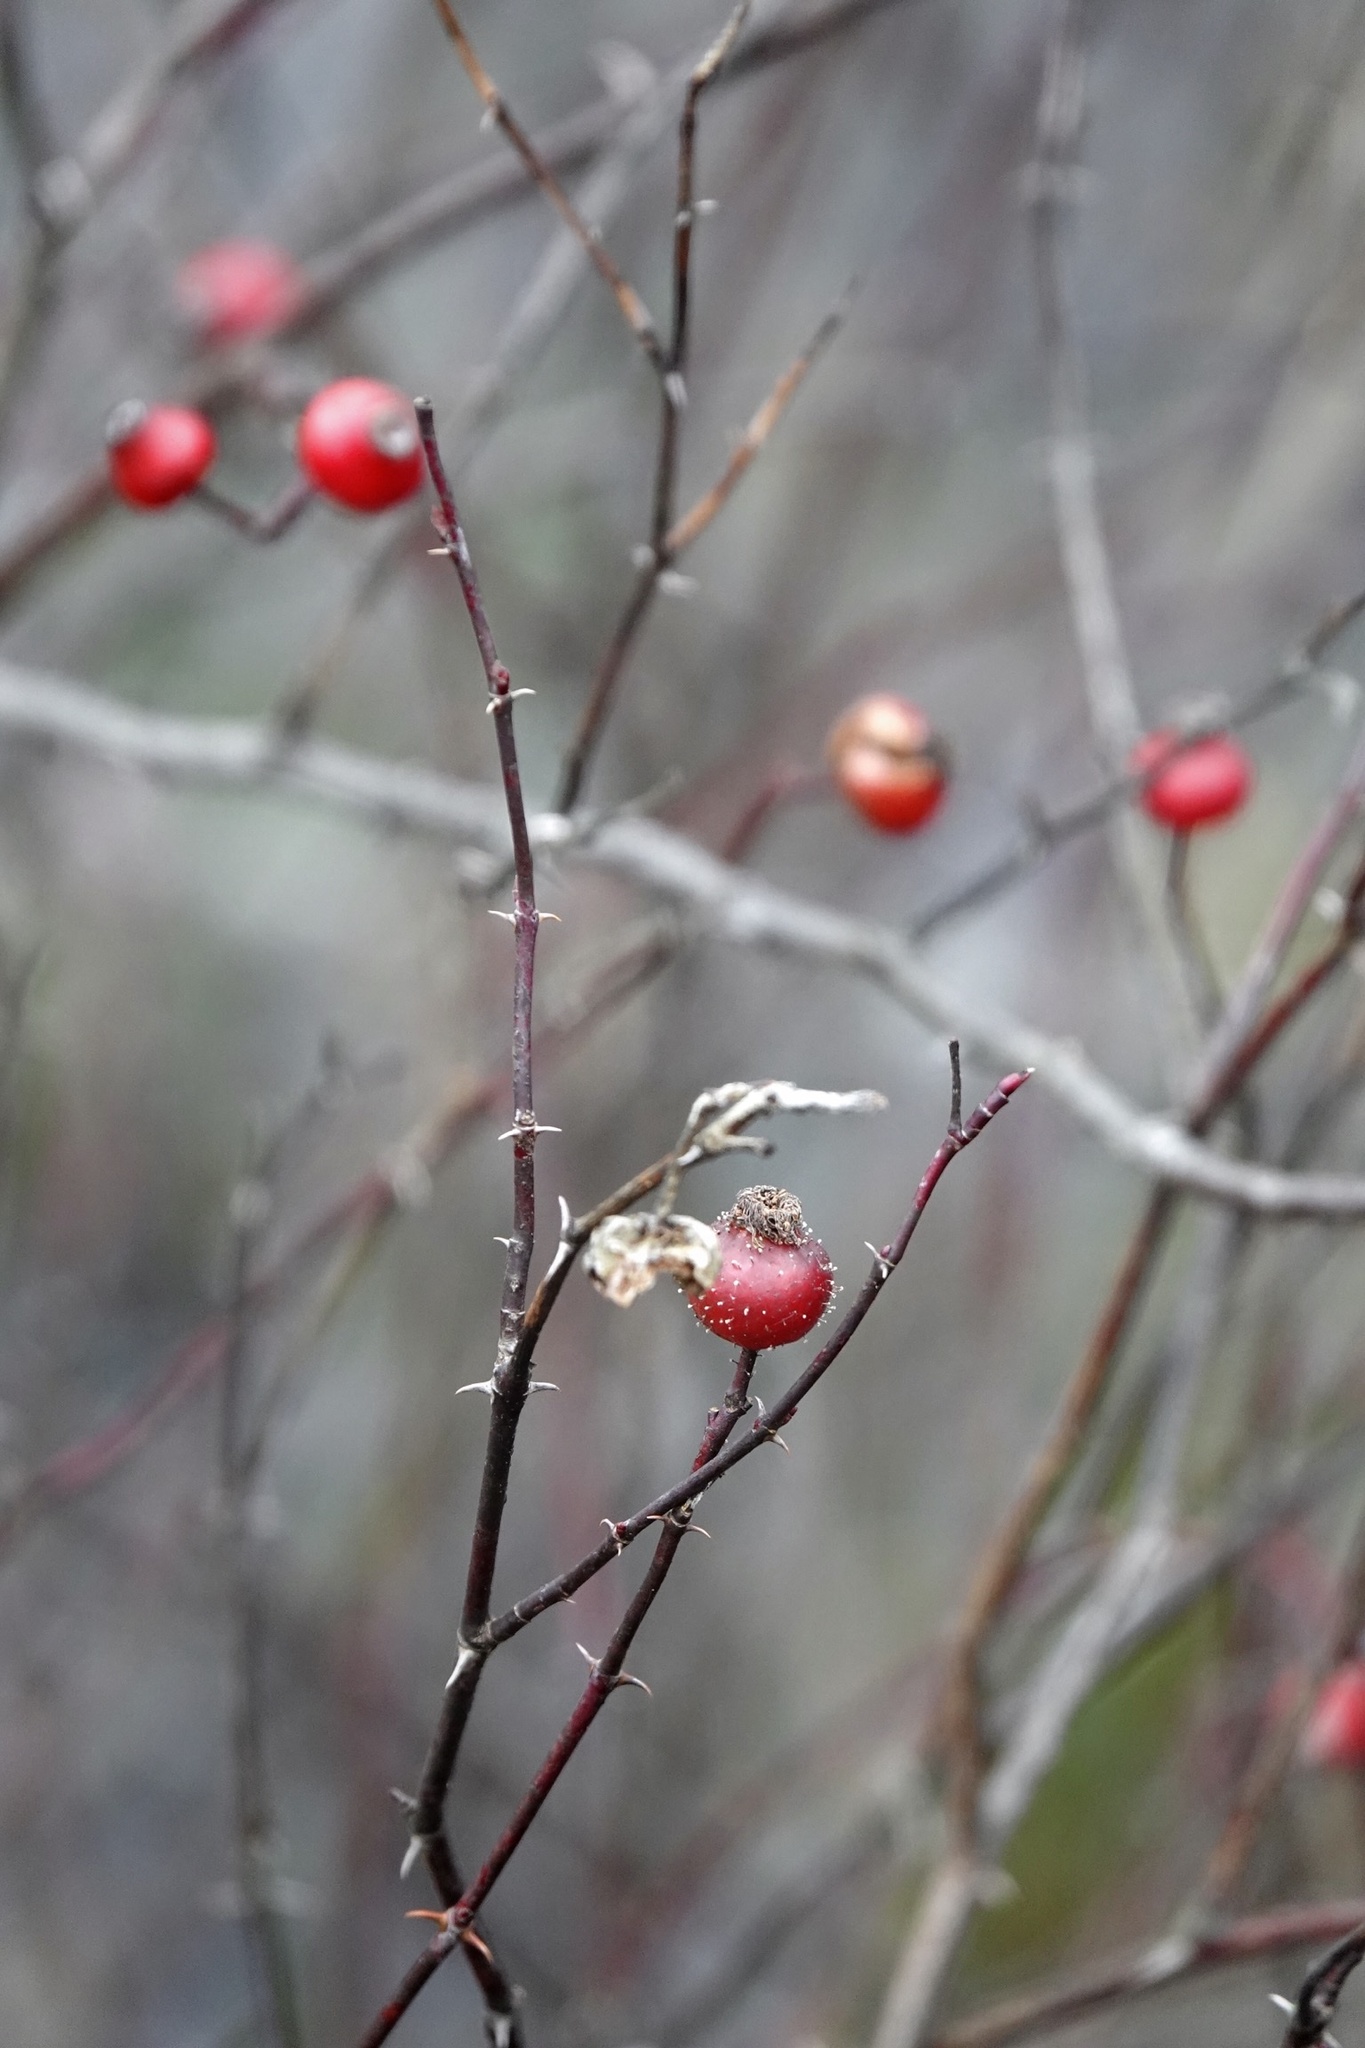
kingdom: Plantae
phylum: Tracheophyta
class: Magnoliopsida
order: Rosales
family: Rosaceae
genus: Rosa
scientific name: Rosa palustris
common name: Swamp rose
